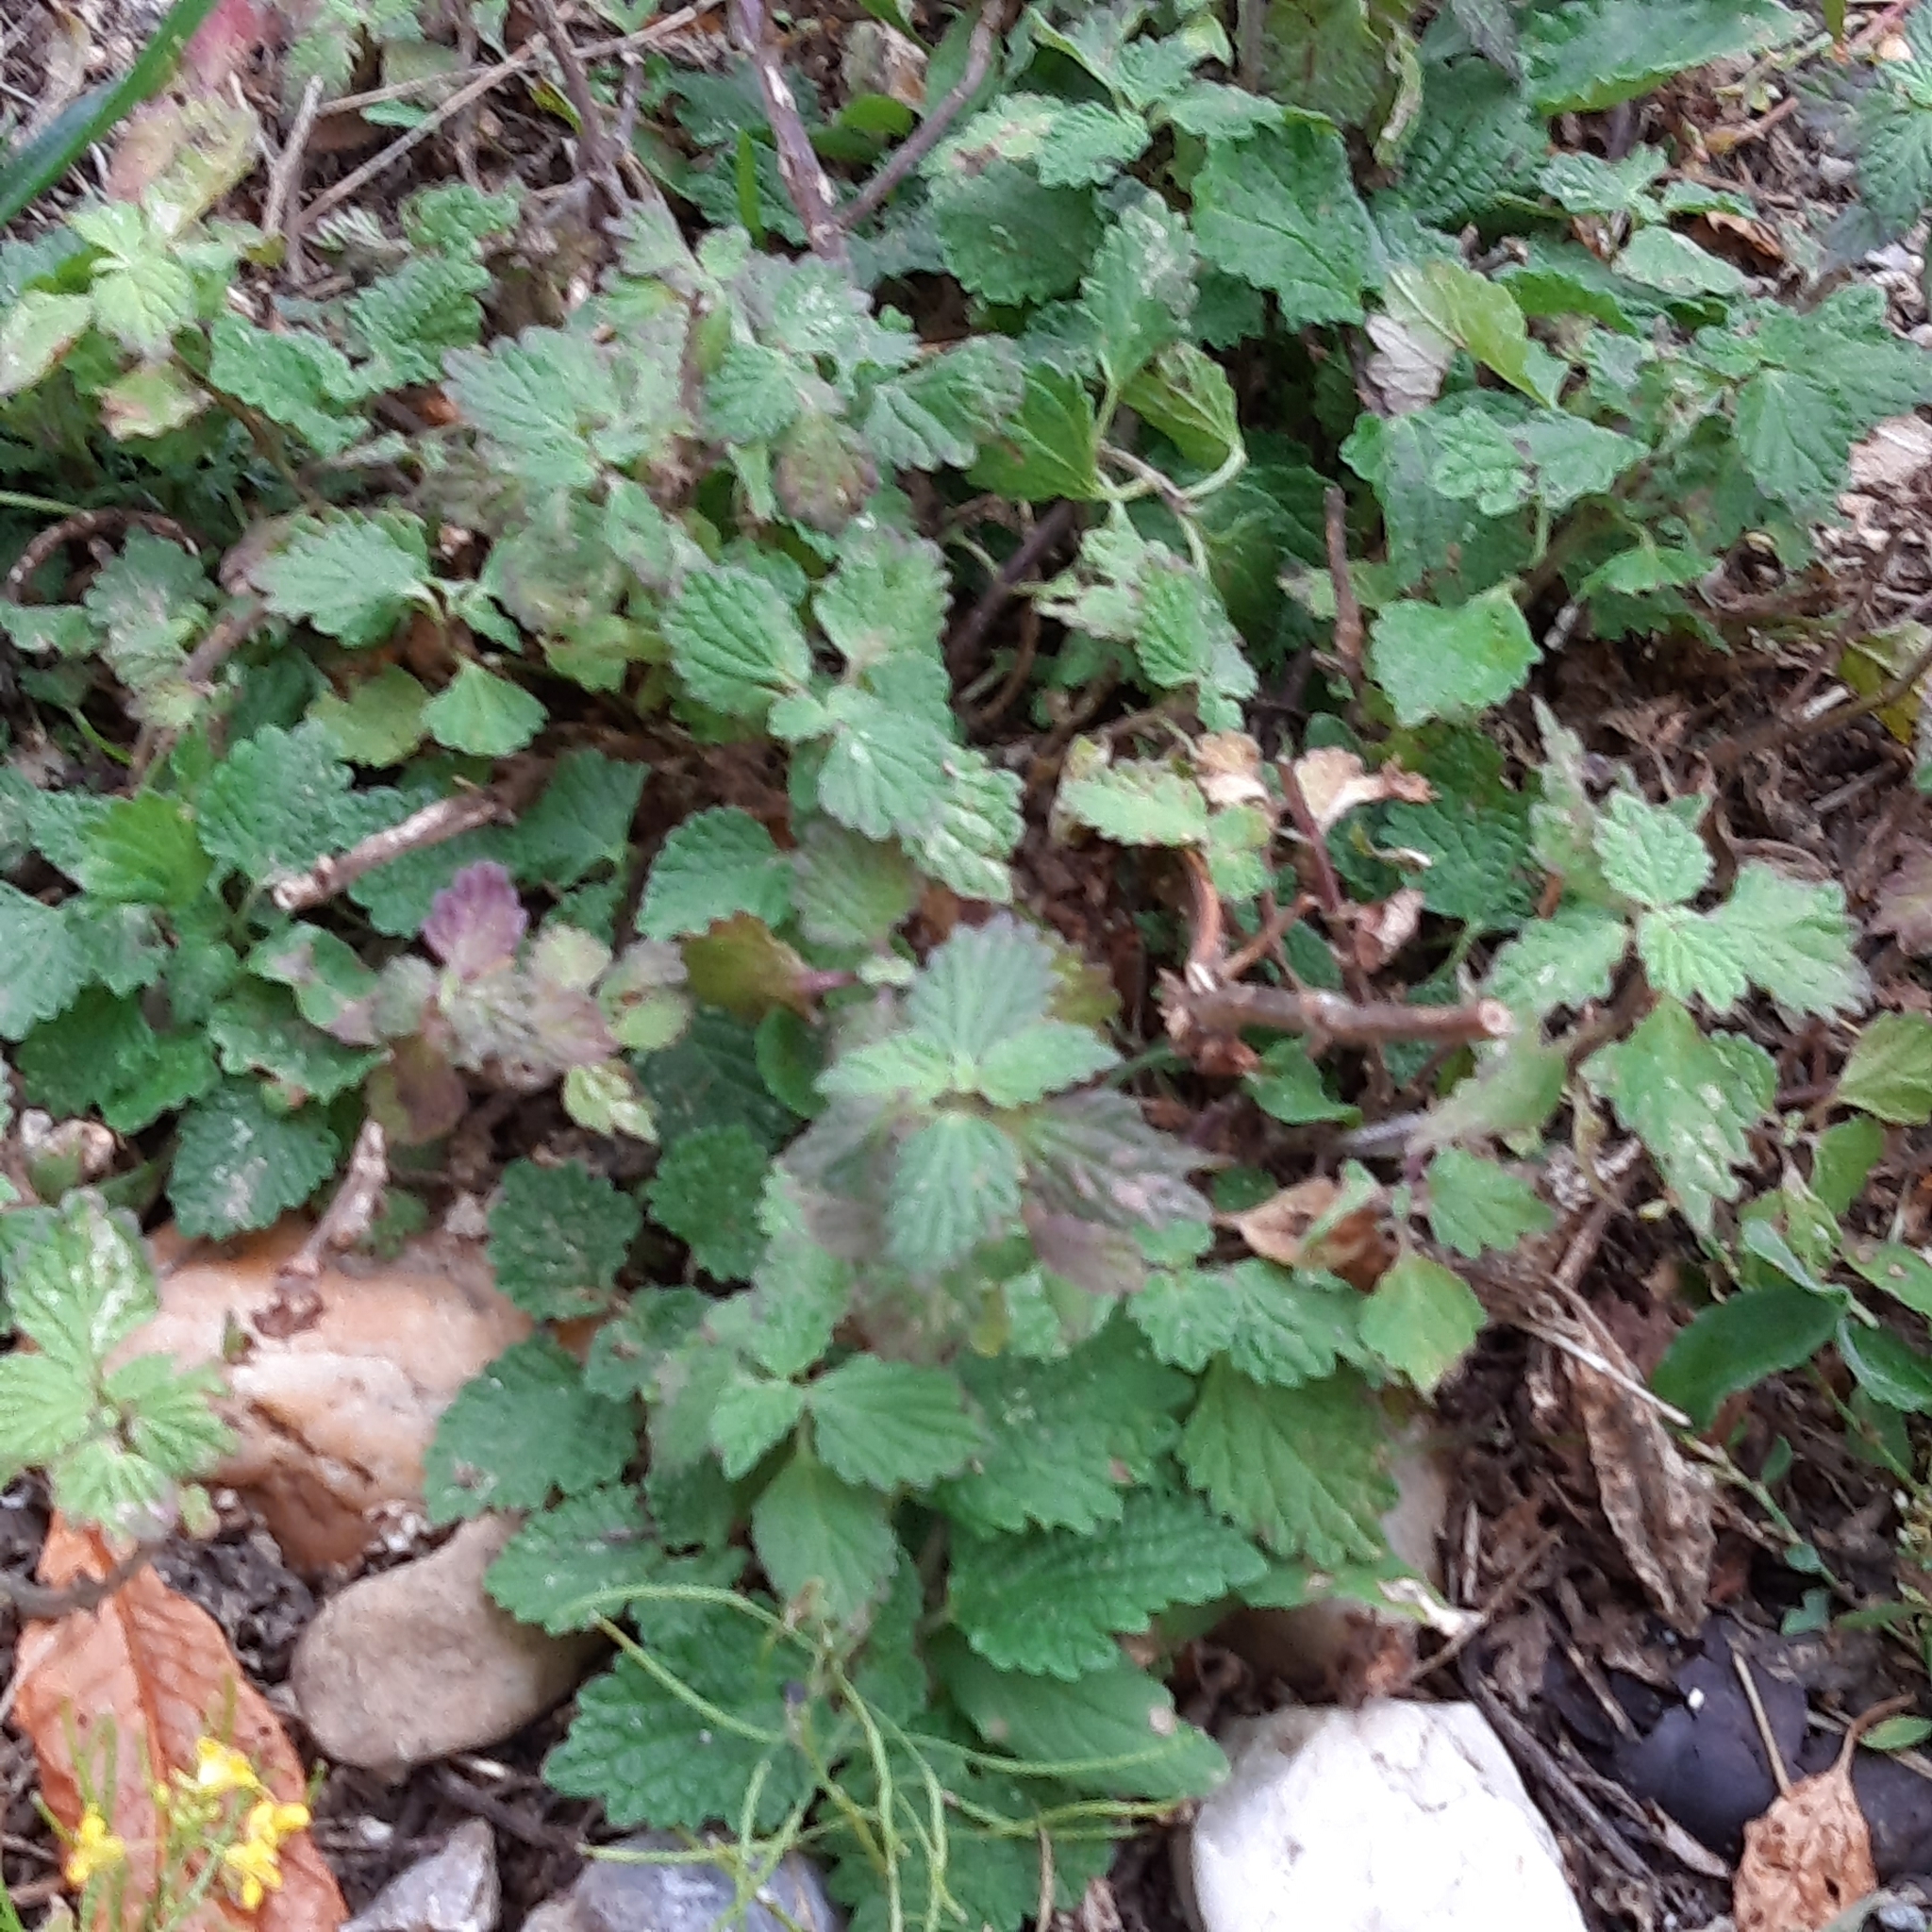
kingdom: Plantae
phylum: Tracheophyta
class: Magnoliopsida
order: Lamiales
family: Lamiaceae
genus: Ballota
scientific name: Ballota nigra
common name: Black horehound
